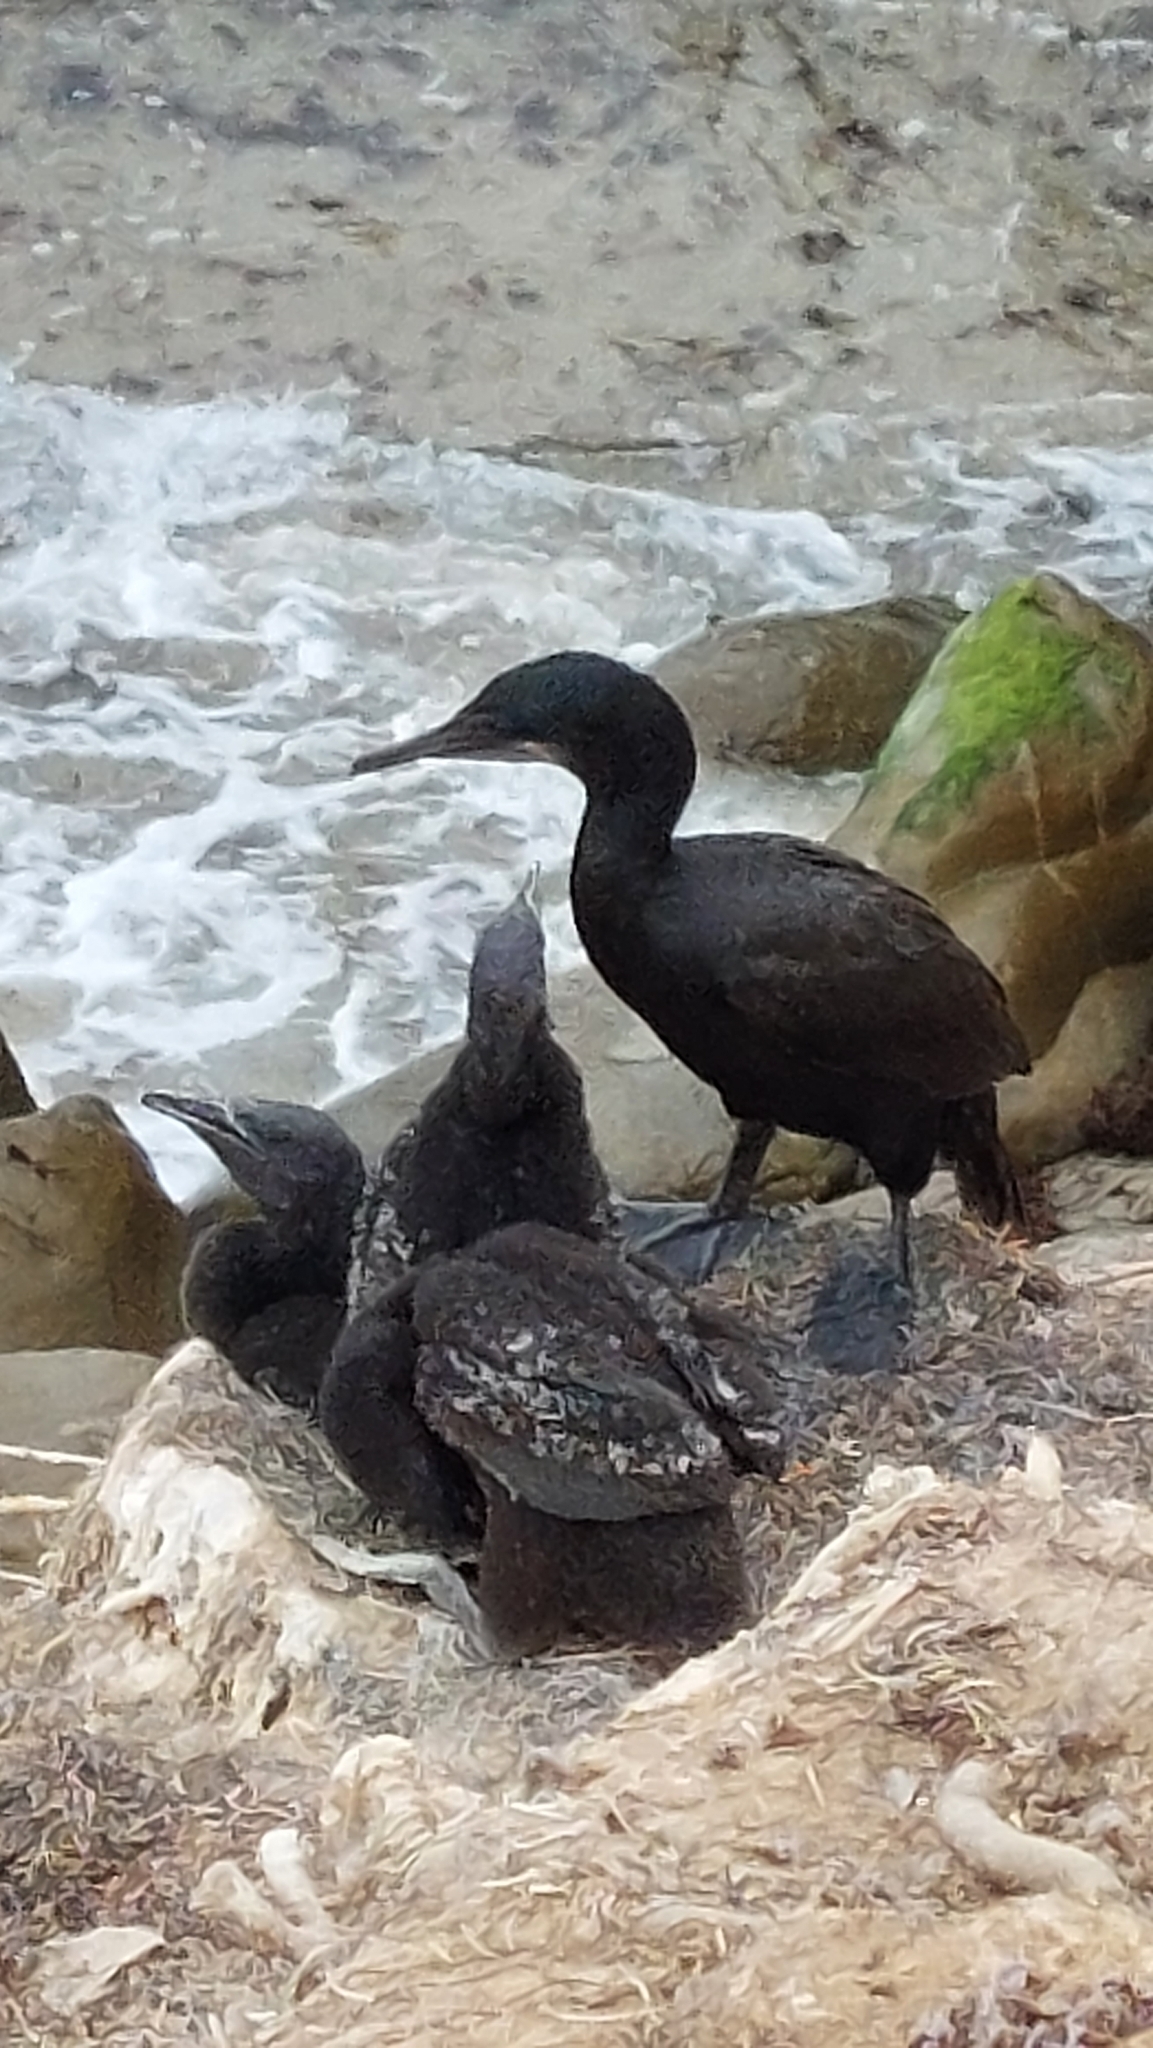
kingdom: Animalia
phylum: Chordata
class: Aves
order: Suliformes
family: Phalacrocoracidae
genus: Urile
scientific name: Urile penicillatus
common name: Brandt's cormorant
